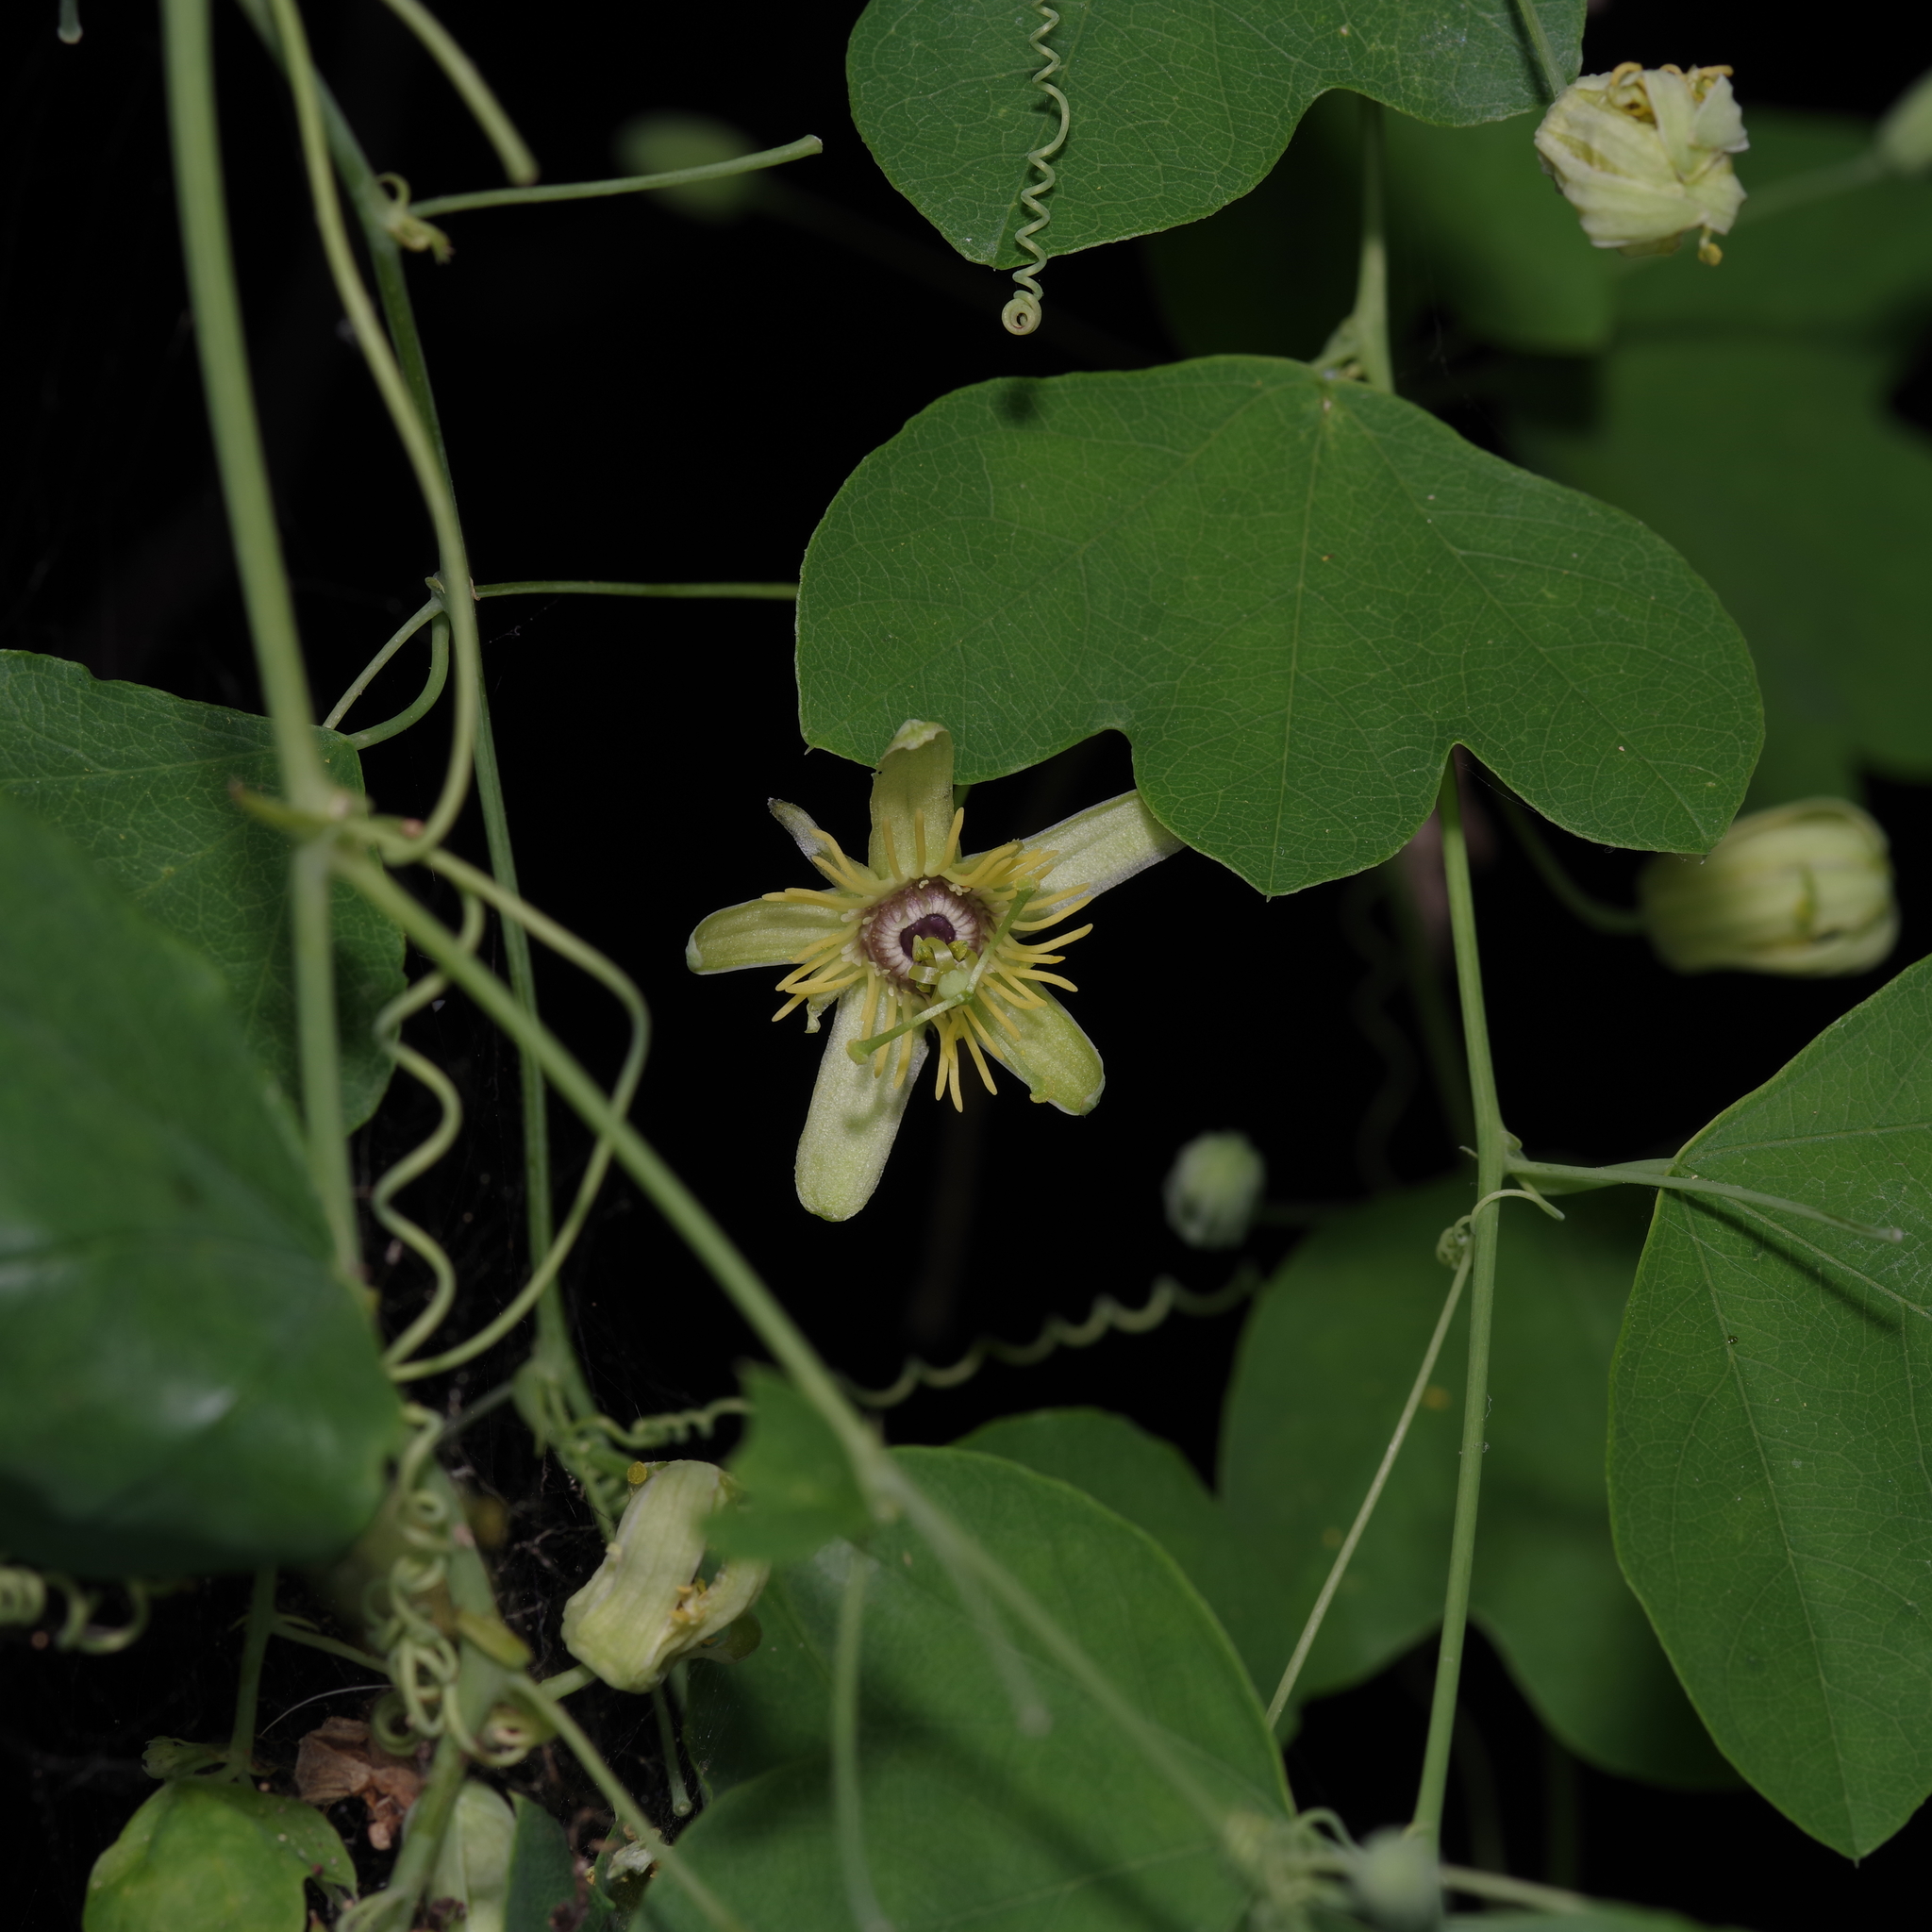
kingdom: Plantae
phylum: Tracheophyta
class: Magnoliopsida
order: Malpighiales
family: Passifloraceae
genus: Passiflora
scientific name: Passiflora lutea
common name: Yellow passionflower
